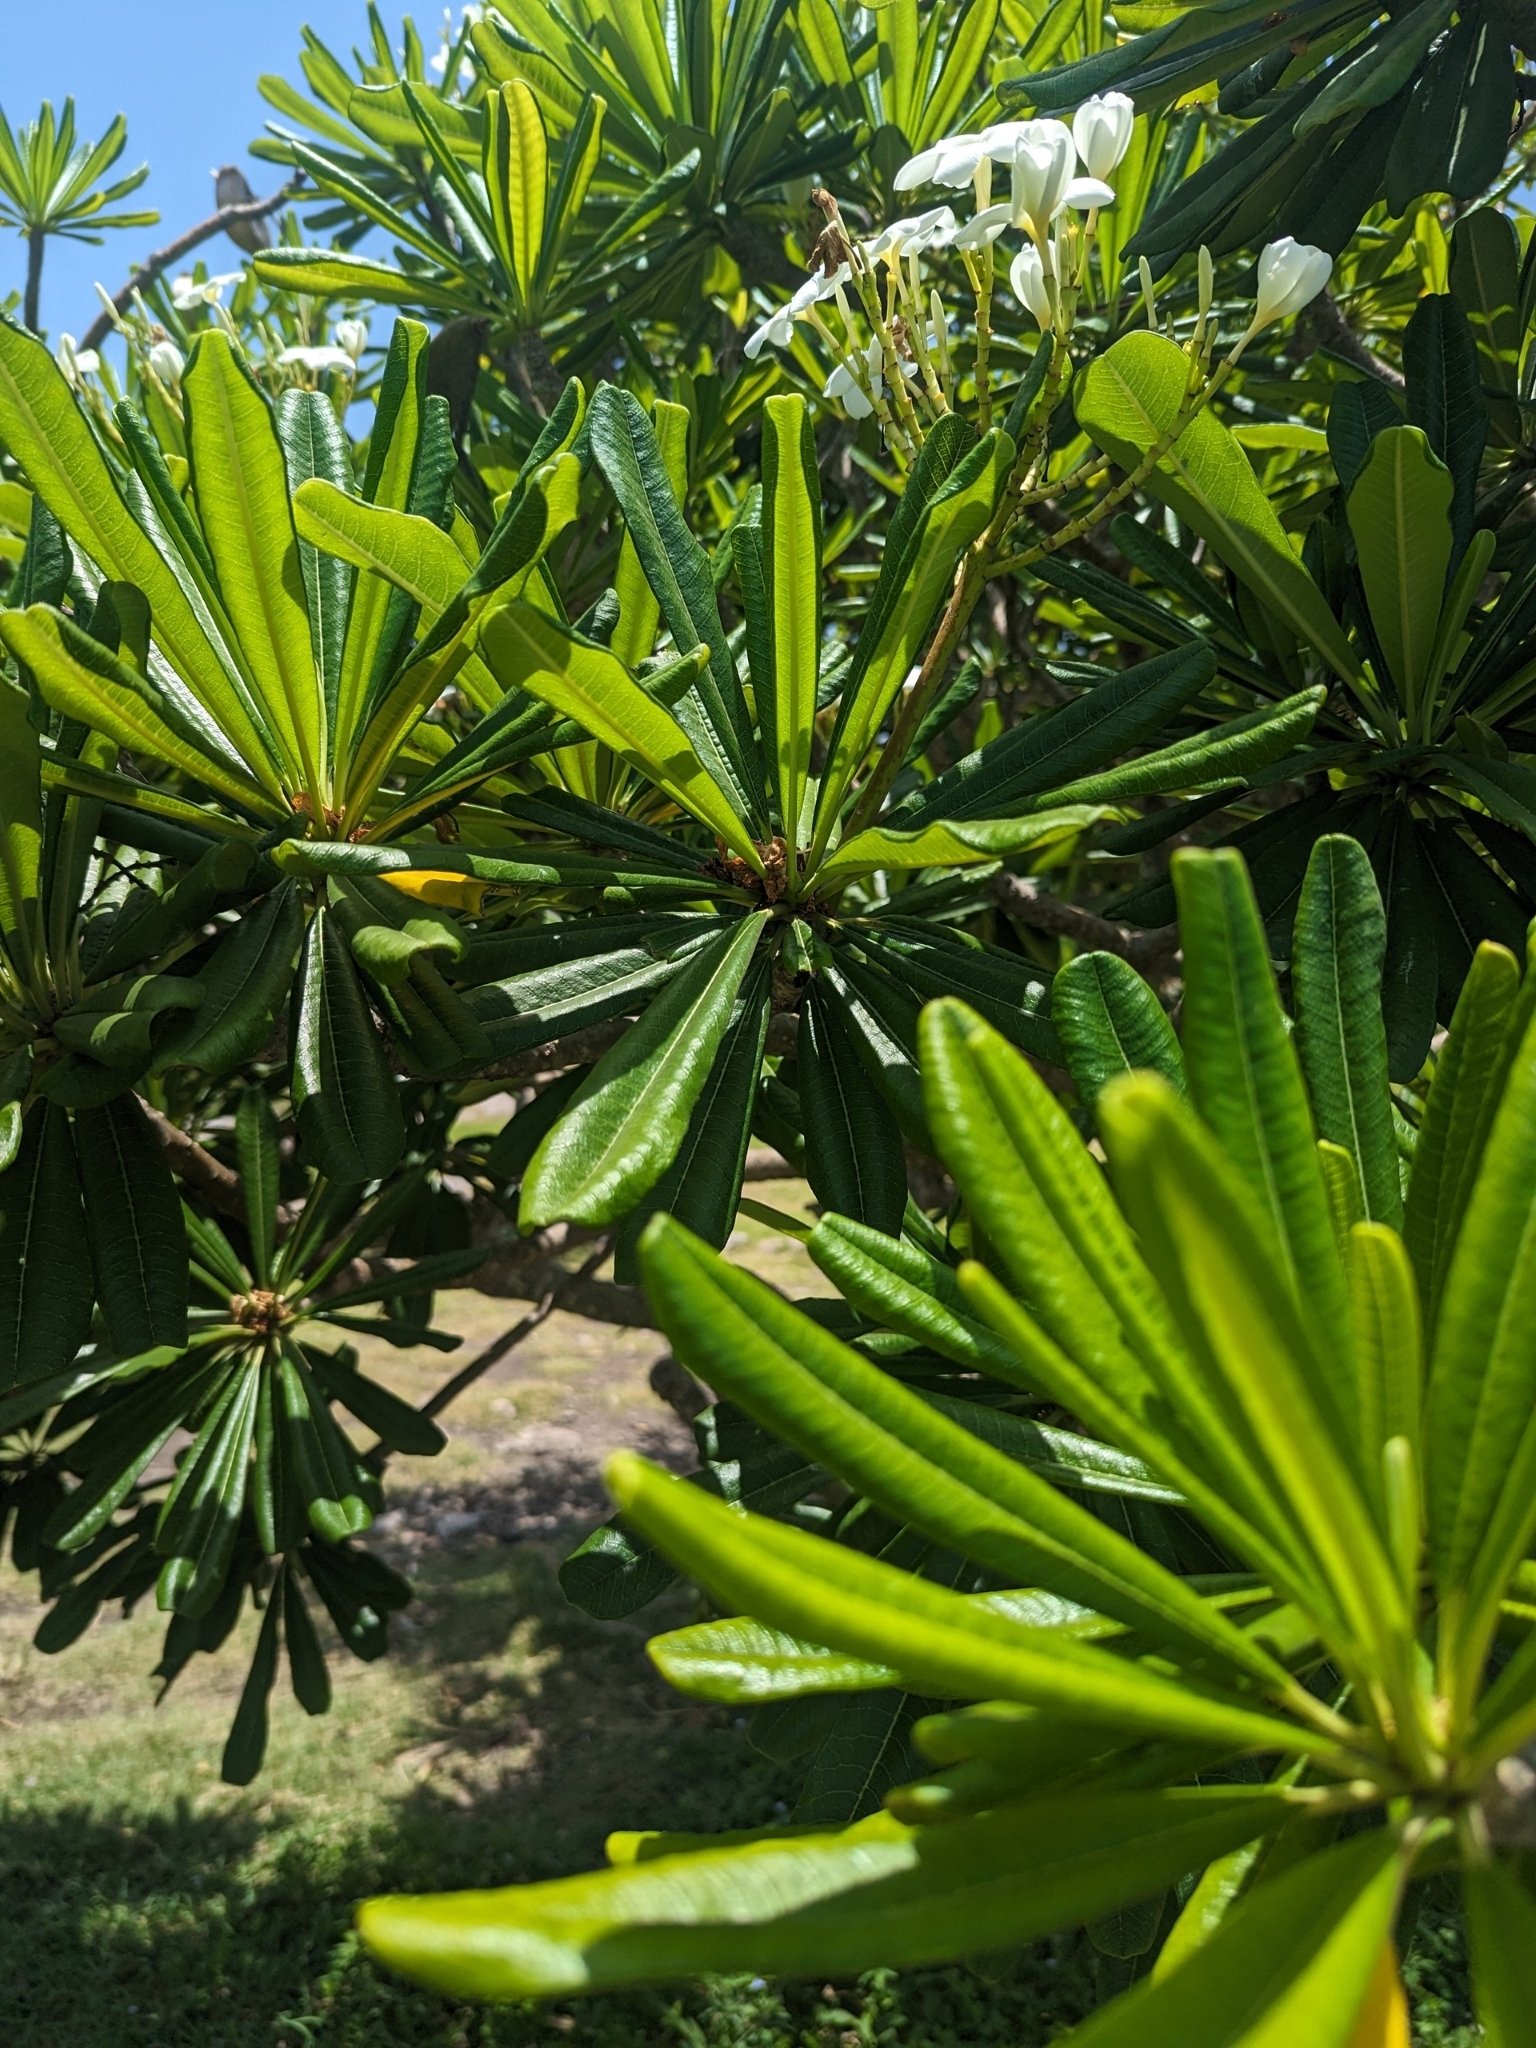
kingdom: Plantae
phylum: Tracheophyta
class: Magnoliopsida
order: Gentianales
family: Apocynaceae
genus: Plumeria
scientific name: Plumeria obtusa
